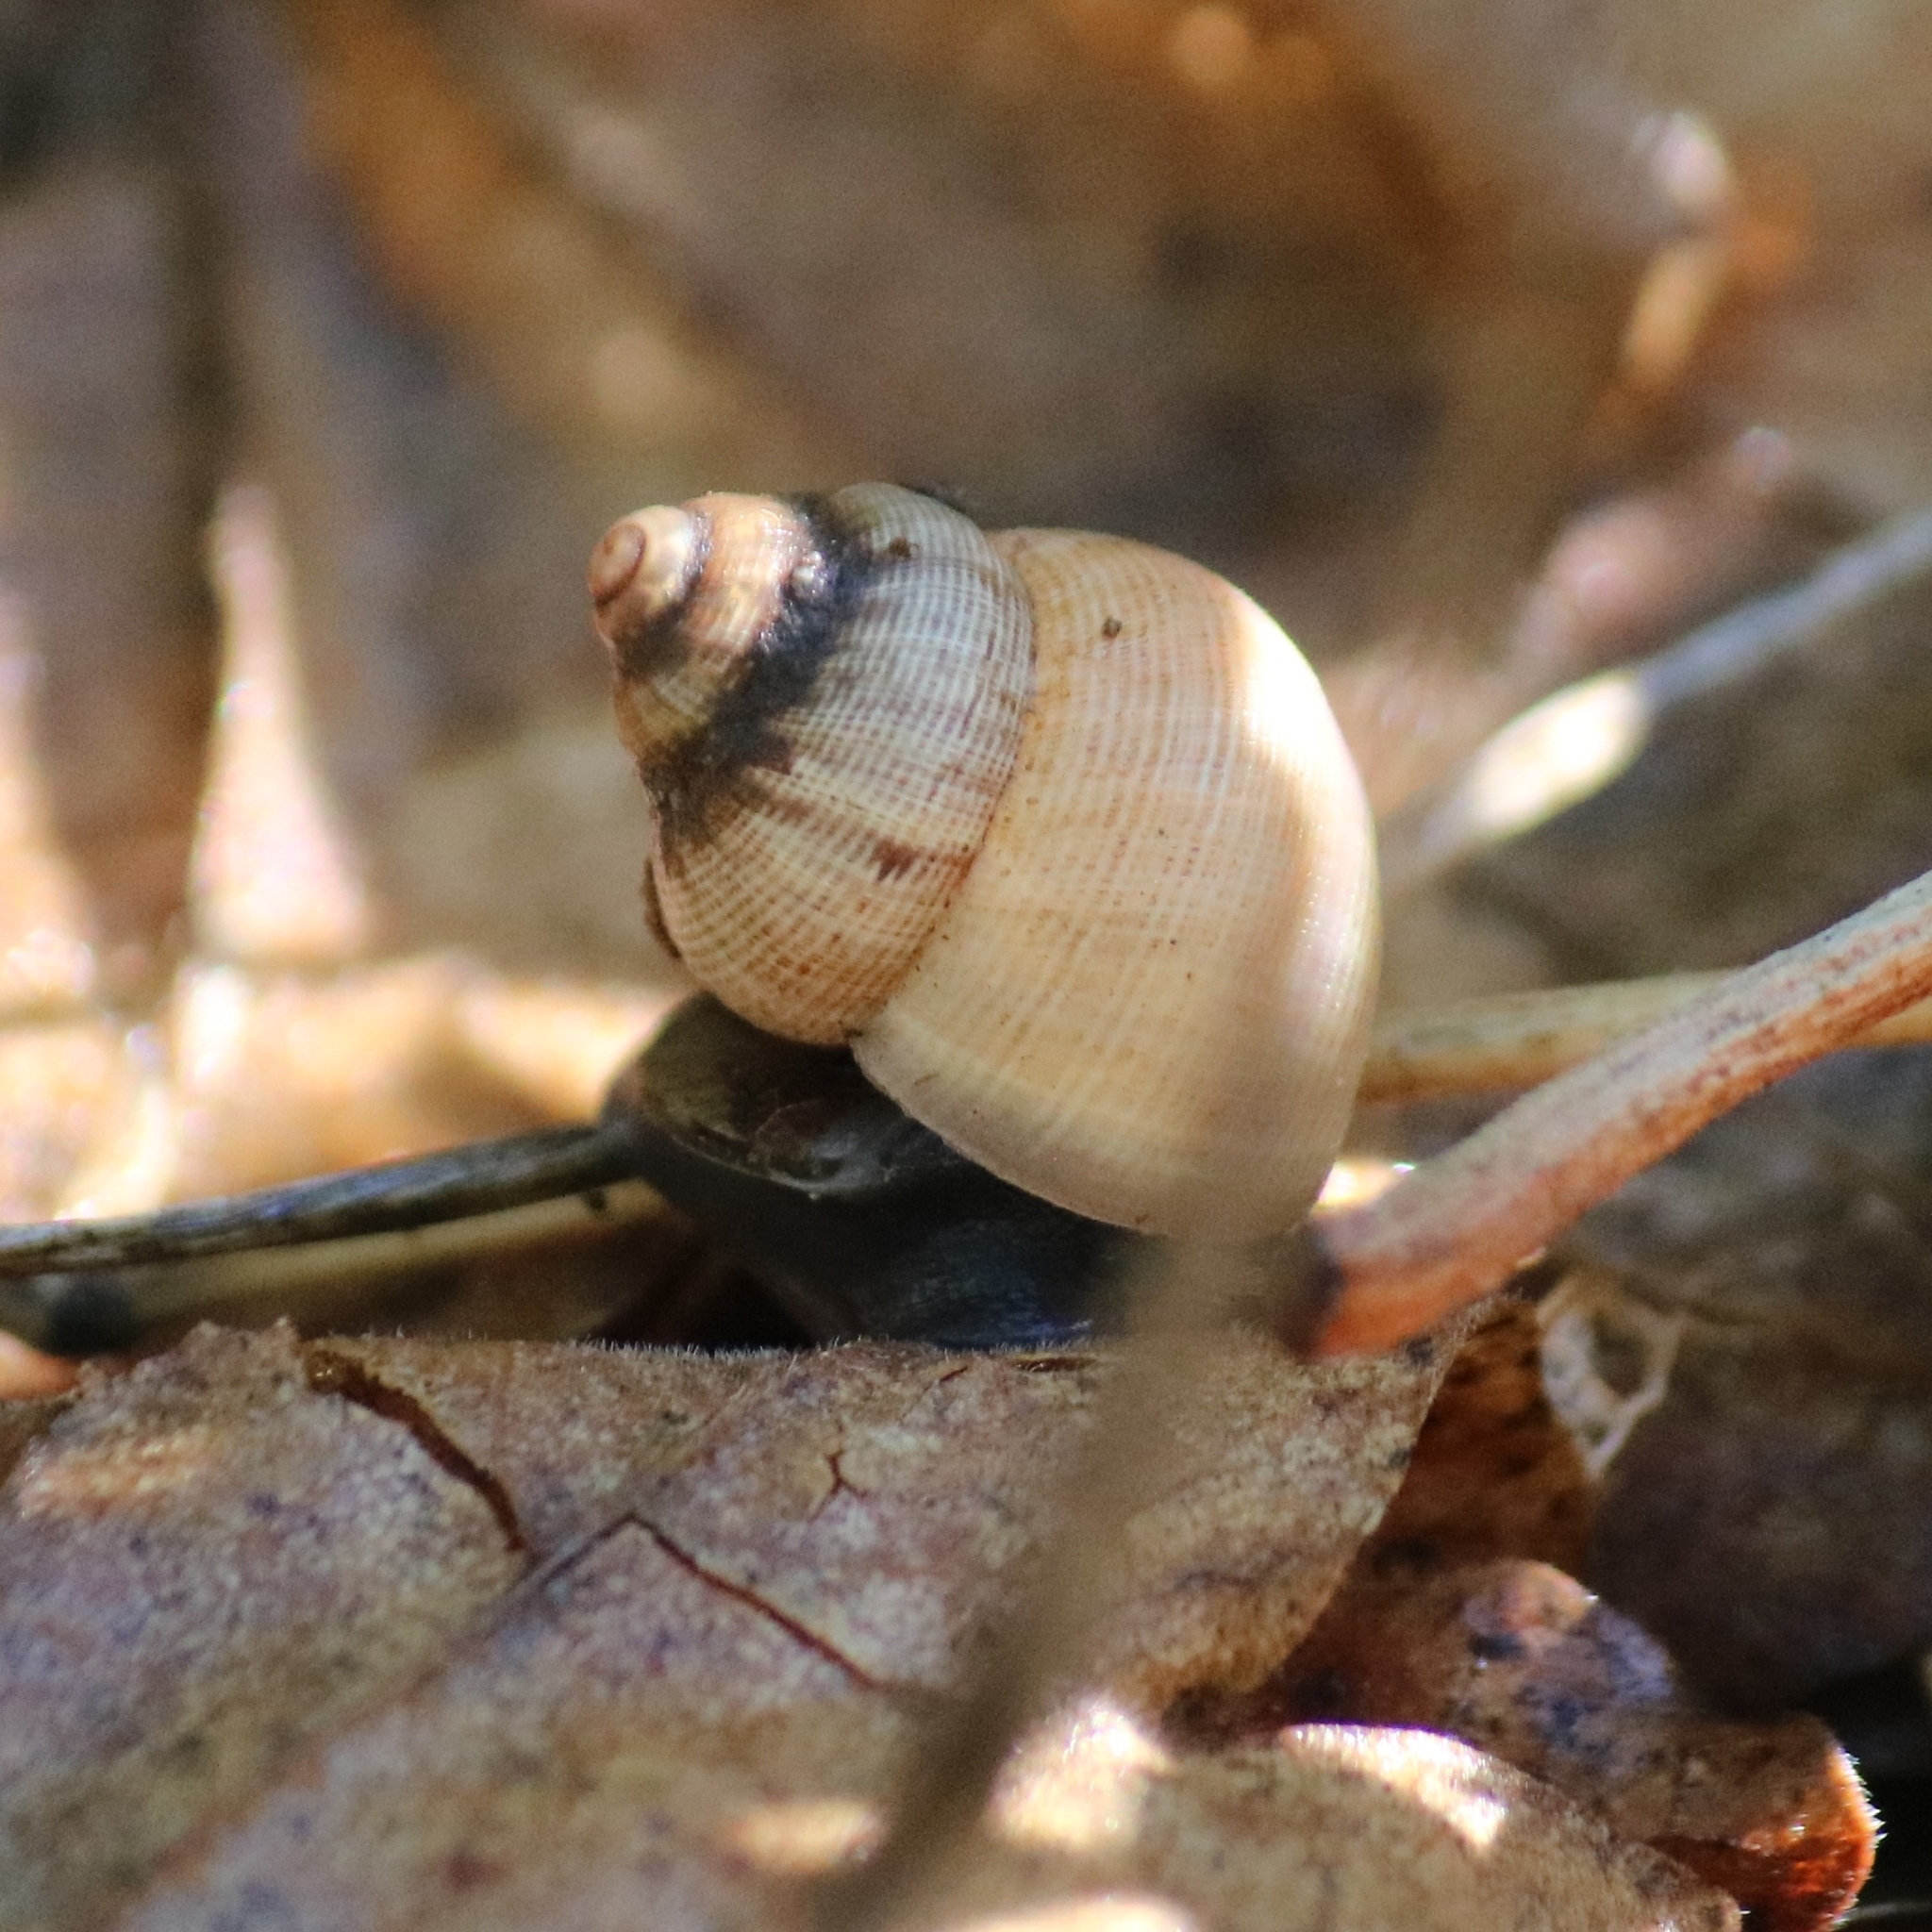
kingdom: Animalia
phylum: Mollusca
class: Gastropoda
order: Littorinimorpha
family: Pomatiidae
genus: Pomatias
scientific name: Pomatias elegans
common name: Red-mouthed snail
